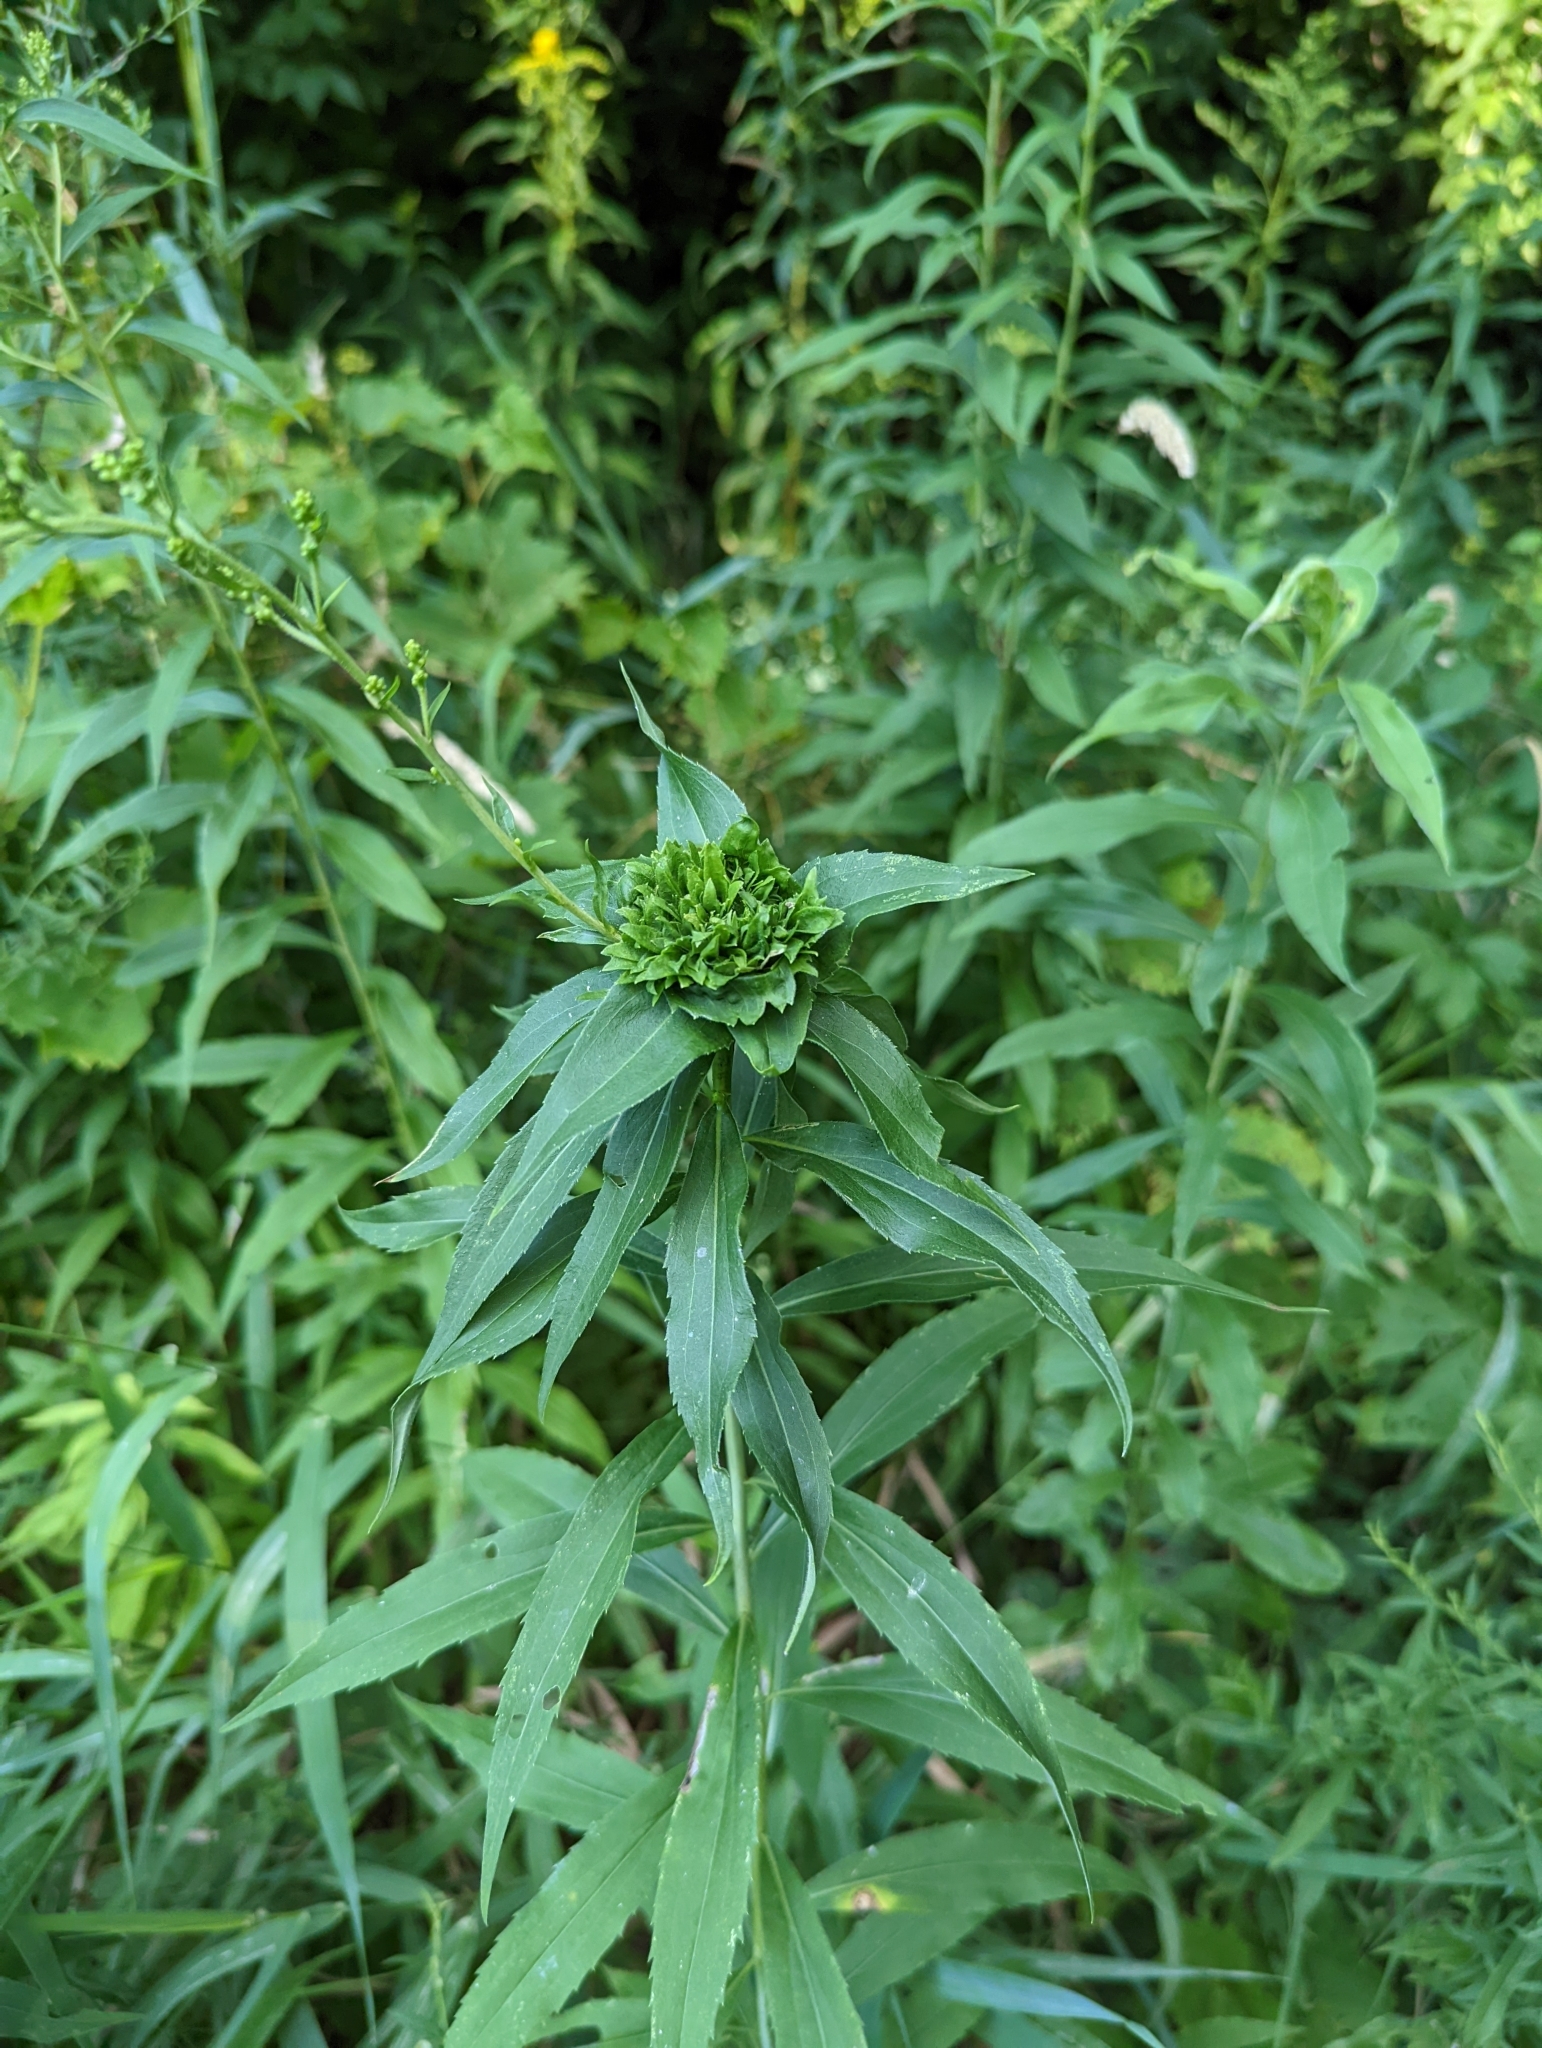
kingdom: Animalia
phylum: Arthropoda
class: Insecta
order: Diptera
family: Cecidomyiidae
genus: Rhopalomyia
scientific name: Rhopalomyia capitata
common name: Giant goldenrod bunch gall midge
